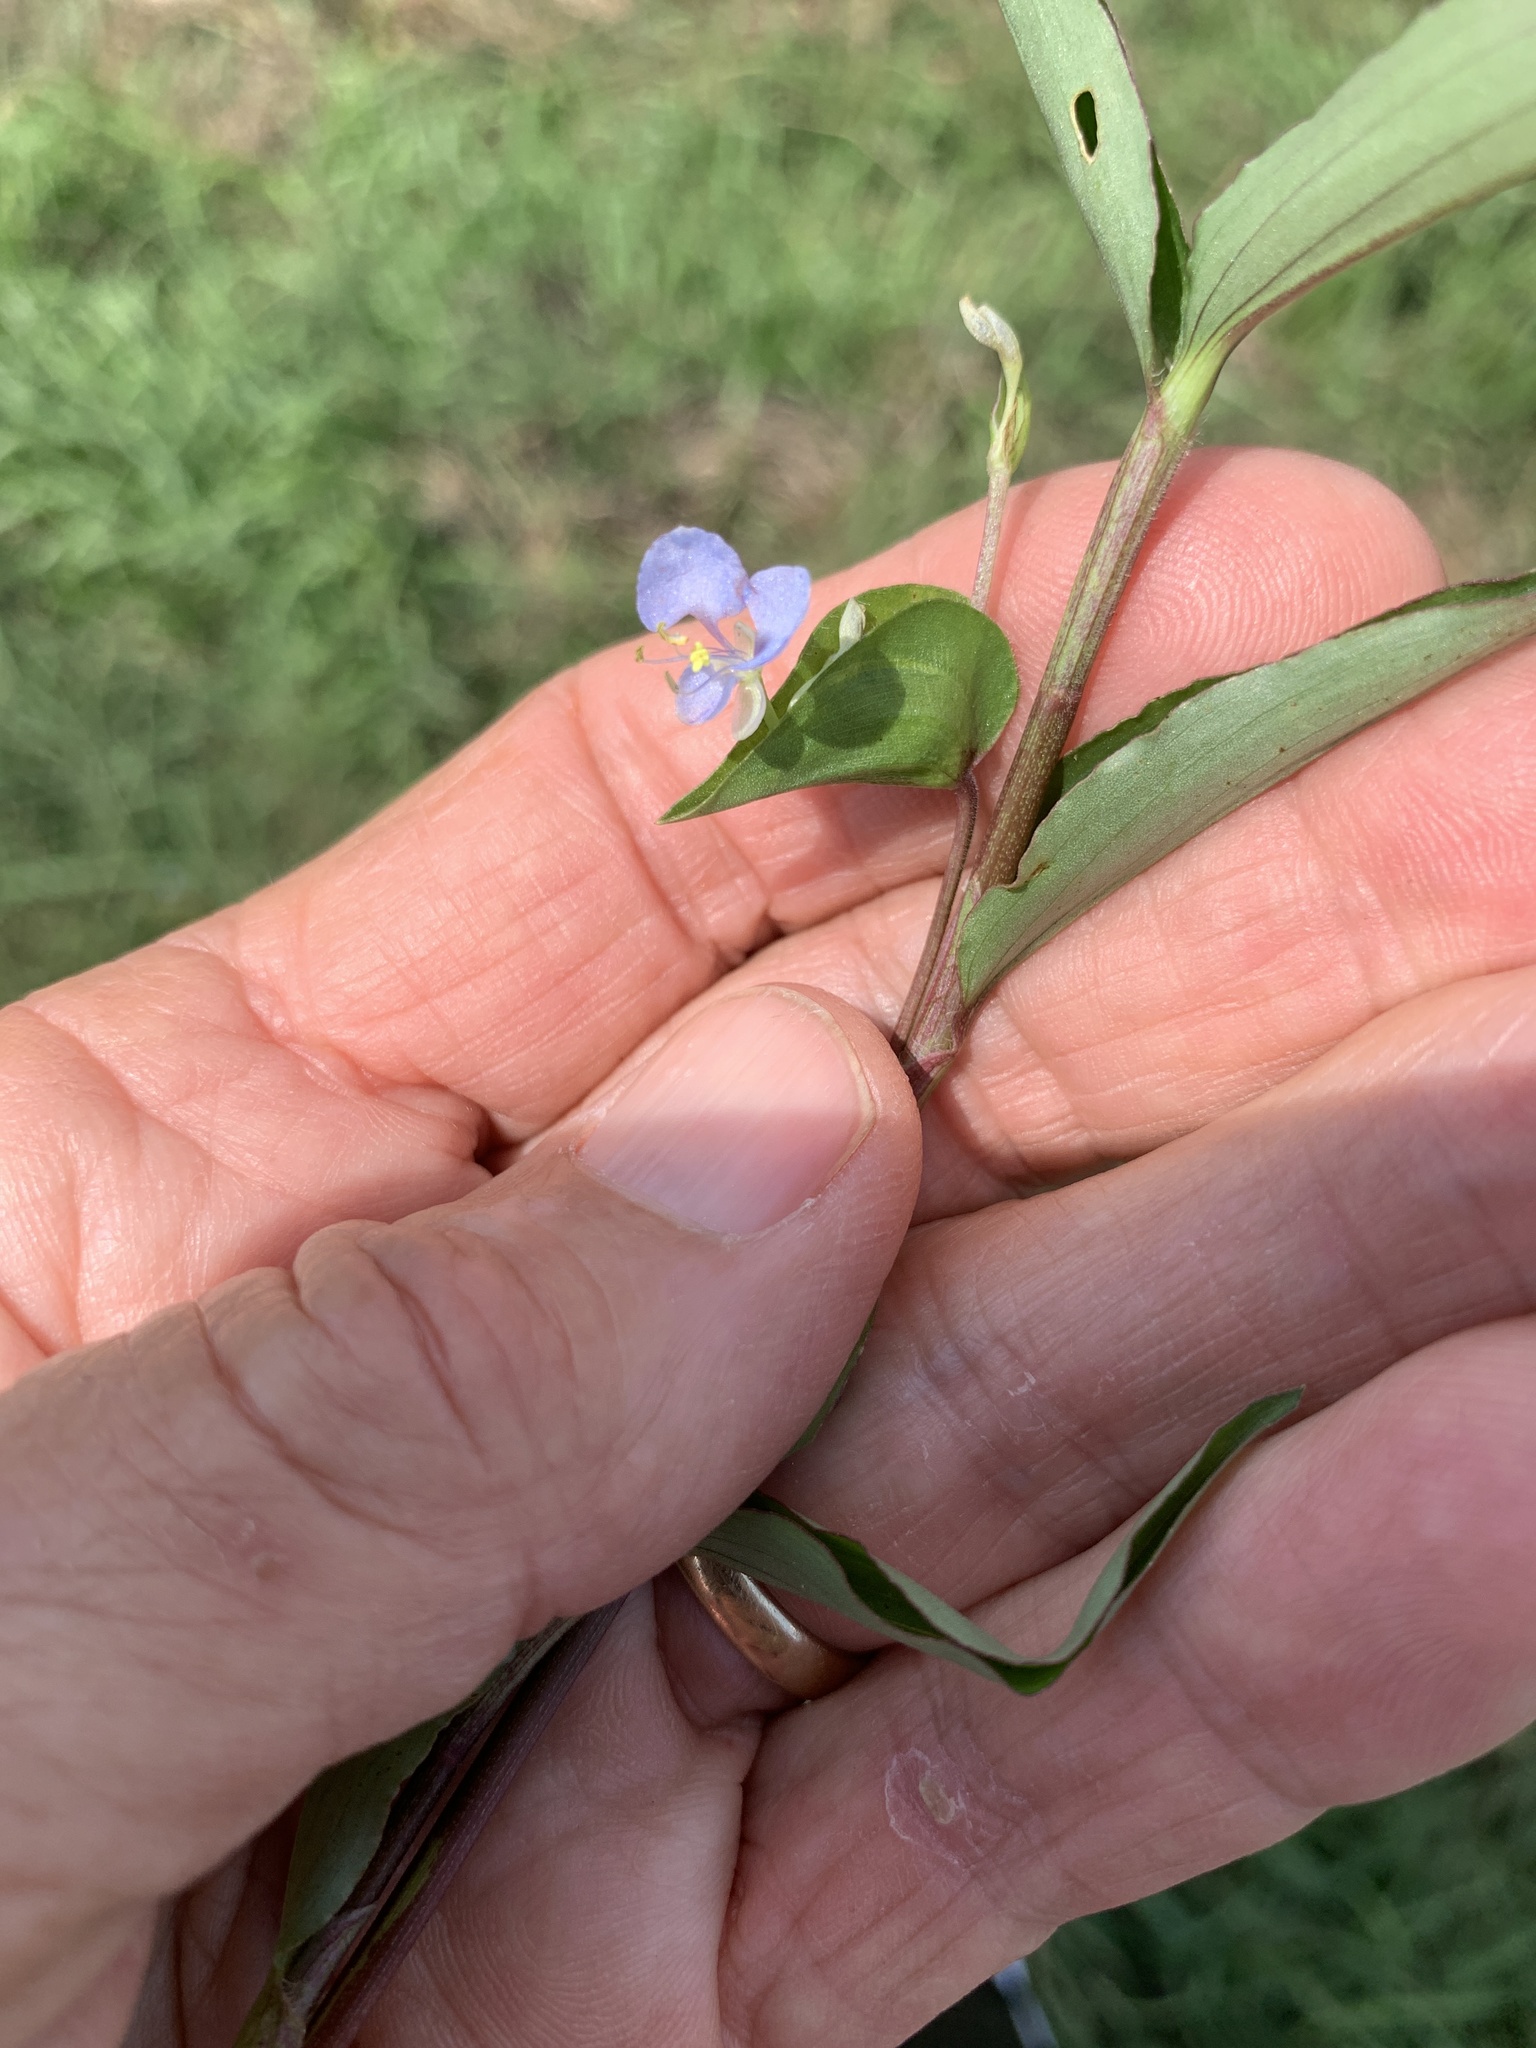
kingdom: Plantae
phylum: Tracheophyta
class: Liliopsida
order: Commelinales
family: Commelinaceae
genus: Commelina
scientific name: Commelina diffusa
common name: Climbing dayflower
